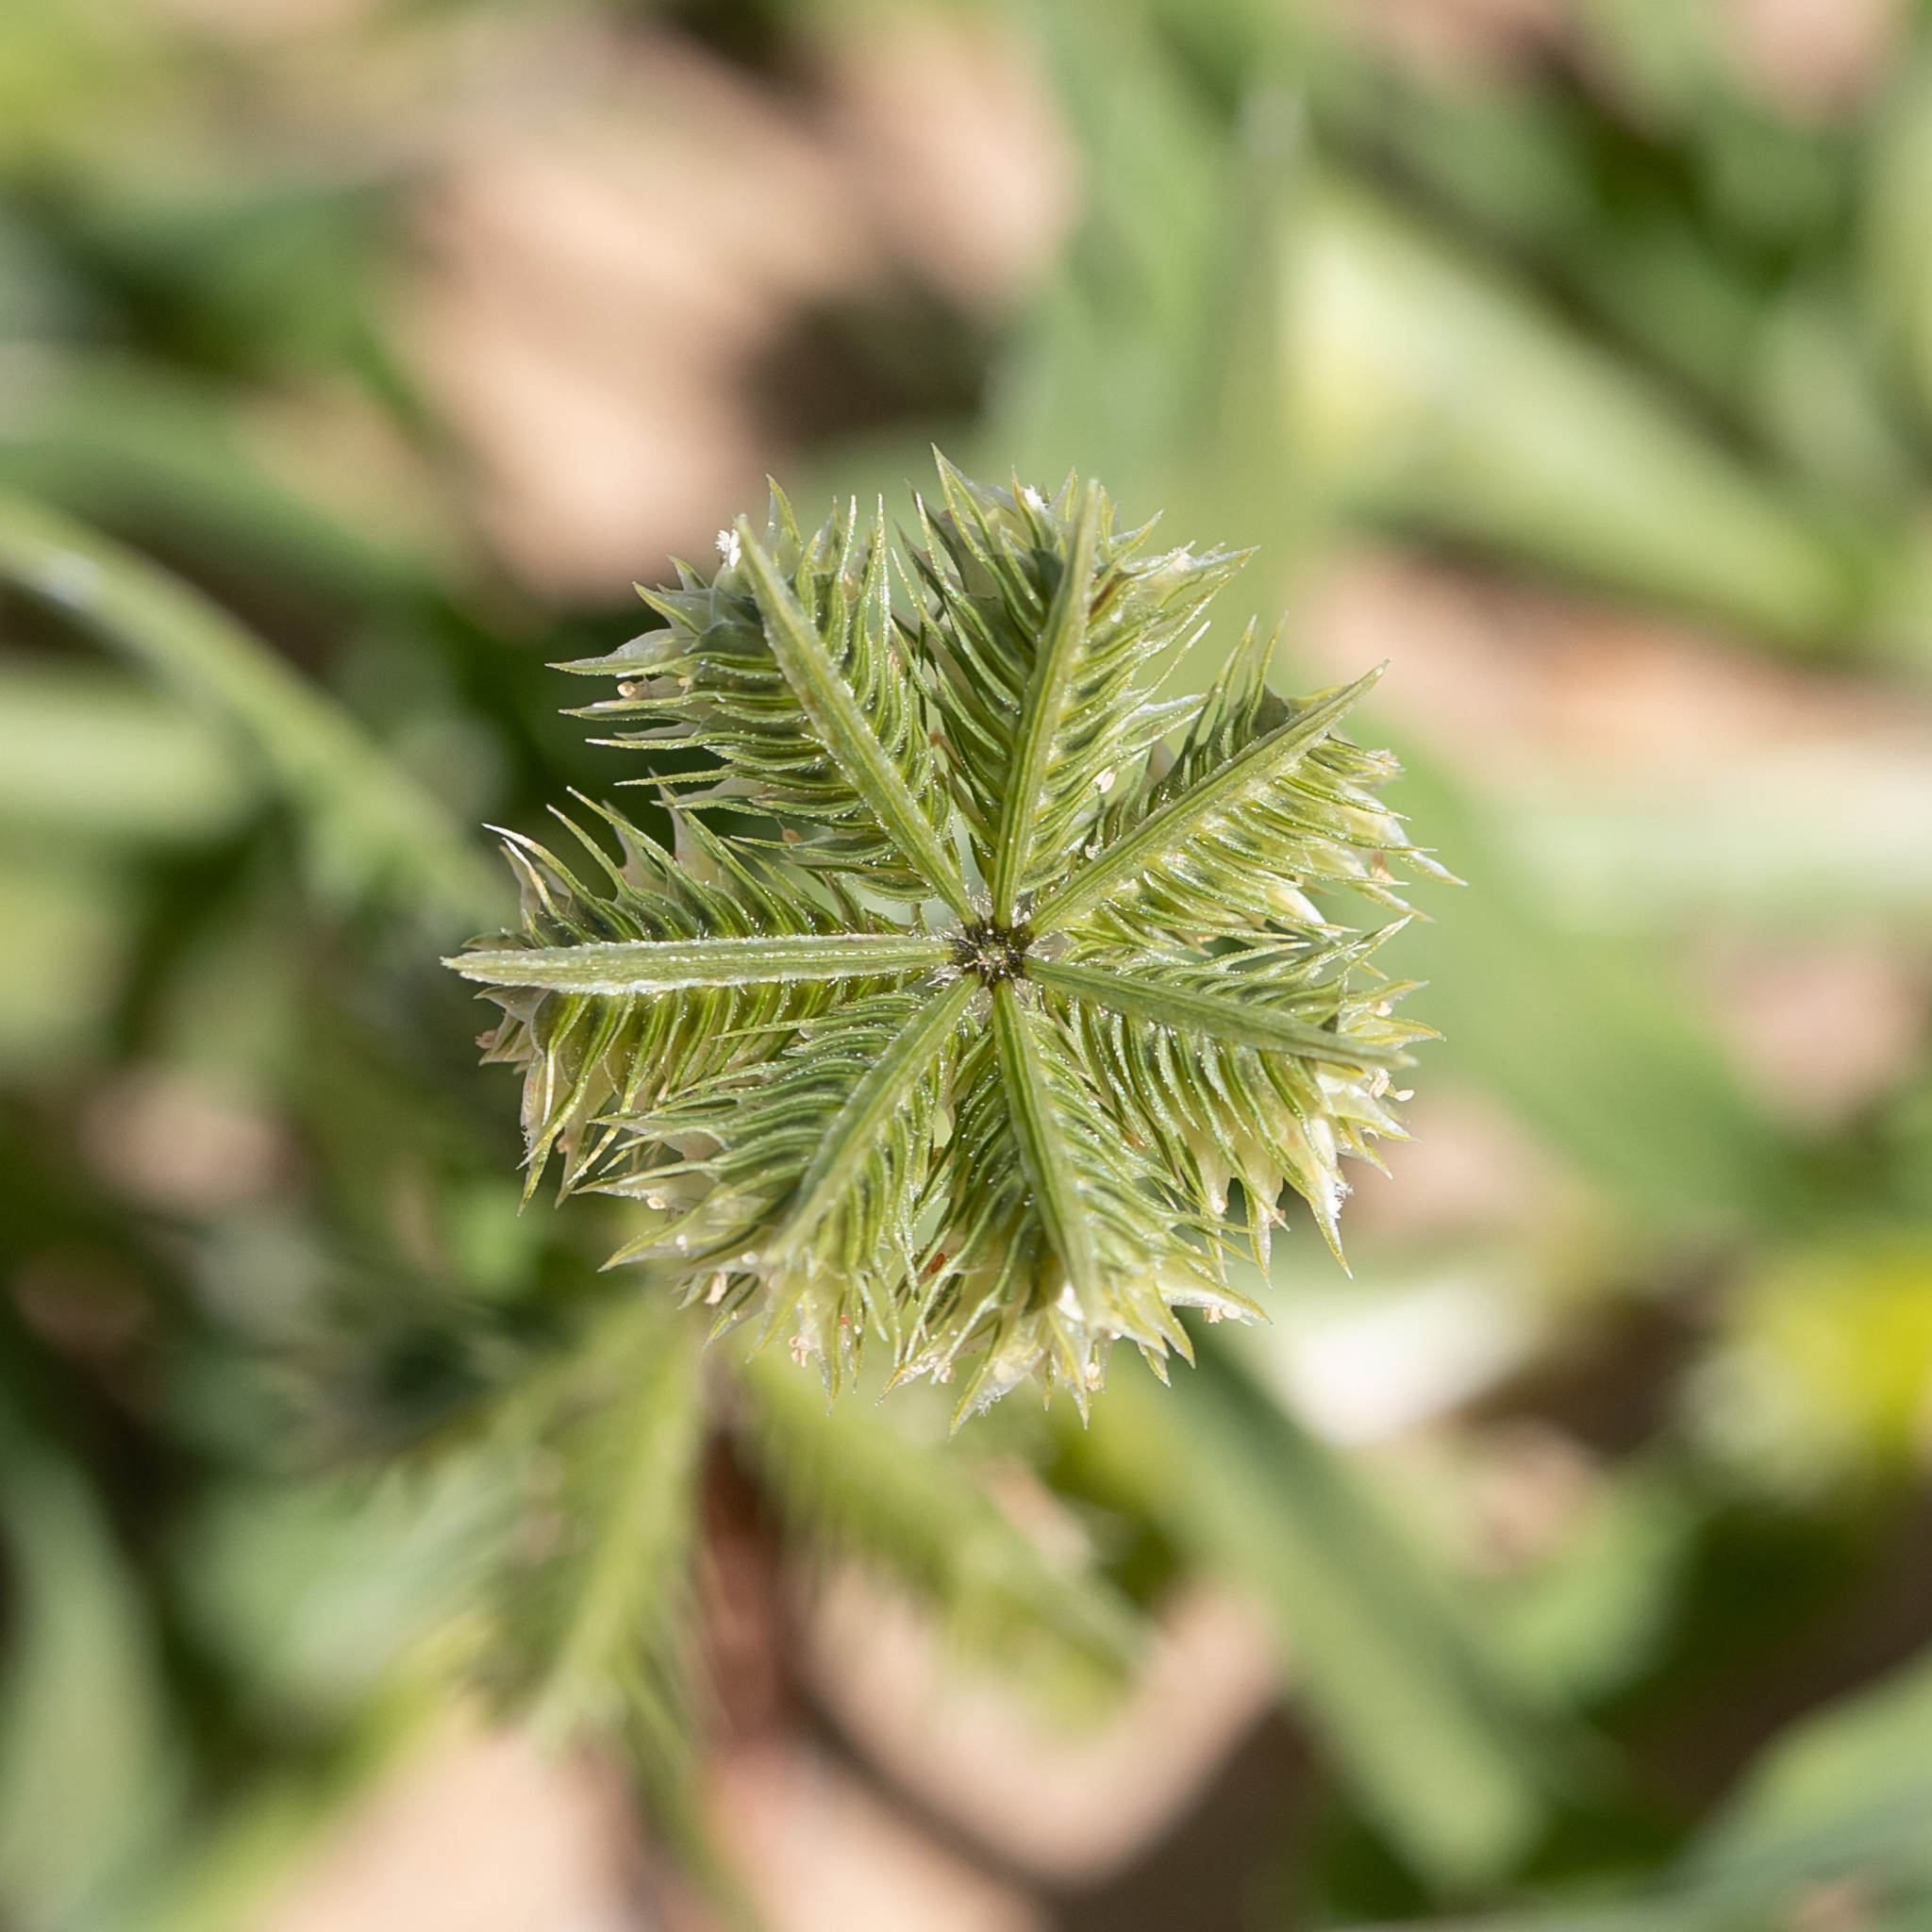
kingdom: Plantae
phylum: Tracheophyta
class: Liliopsida
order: Poales
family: Poaceae
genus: Dactyloctenium
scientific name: Dactyloctenium radulans
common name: Button-grass
